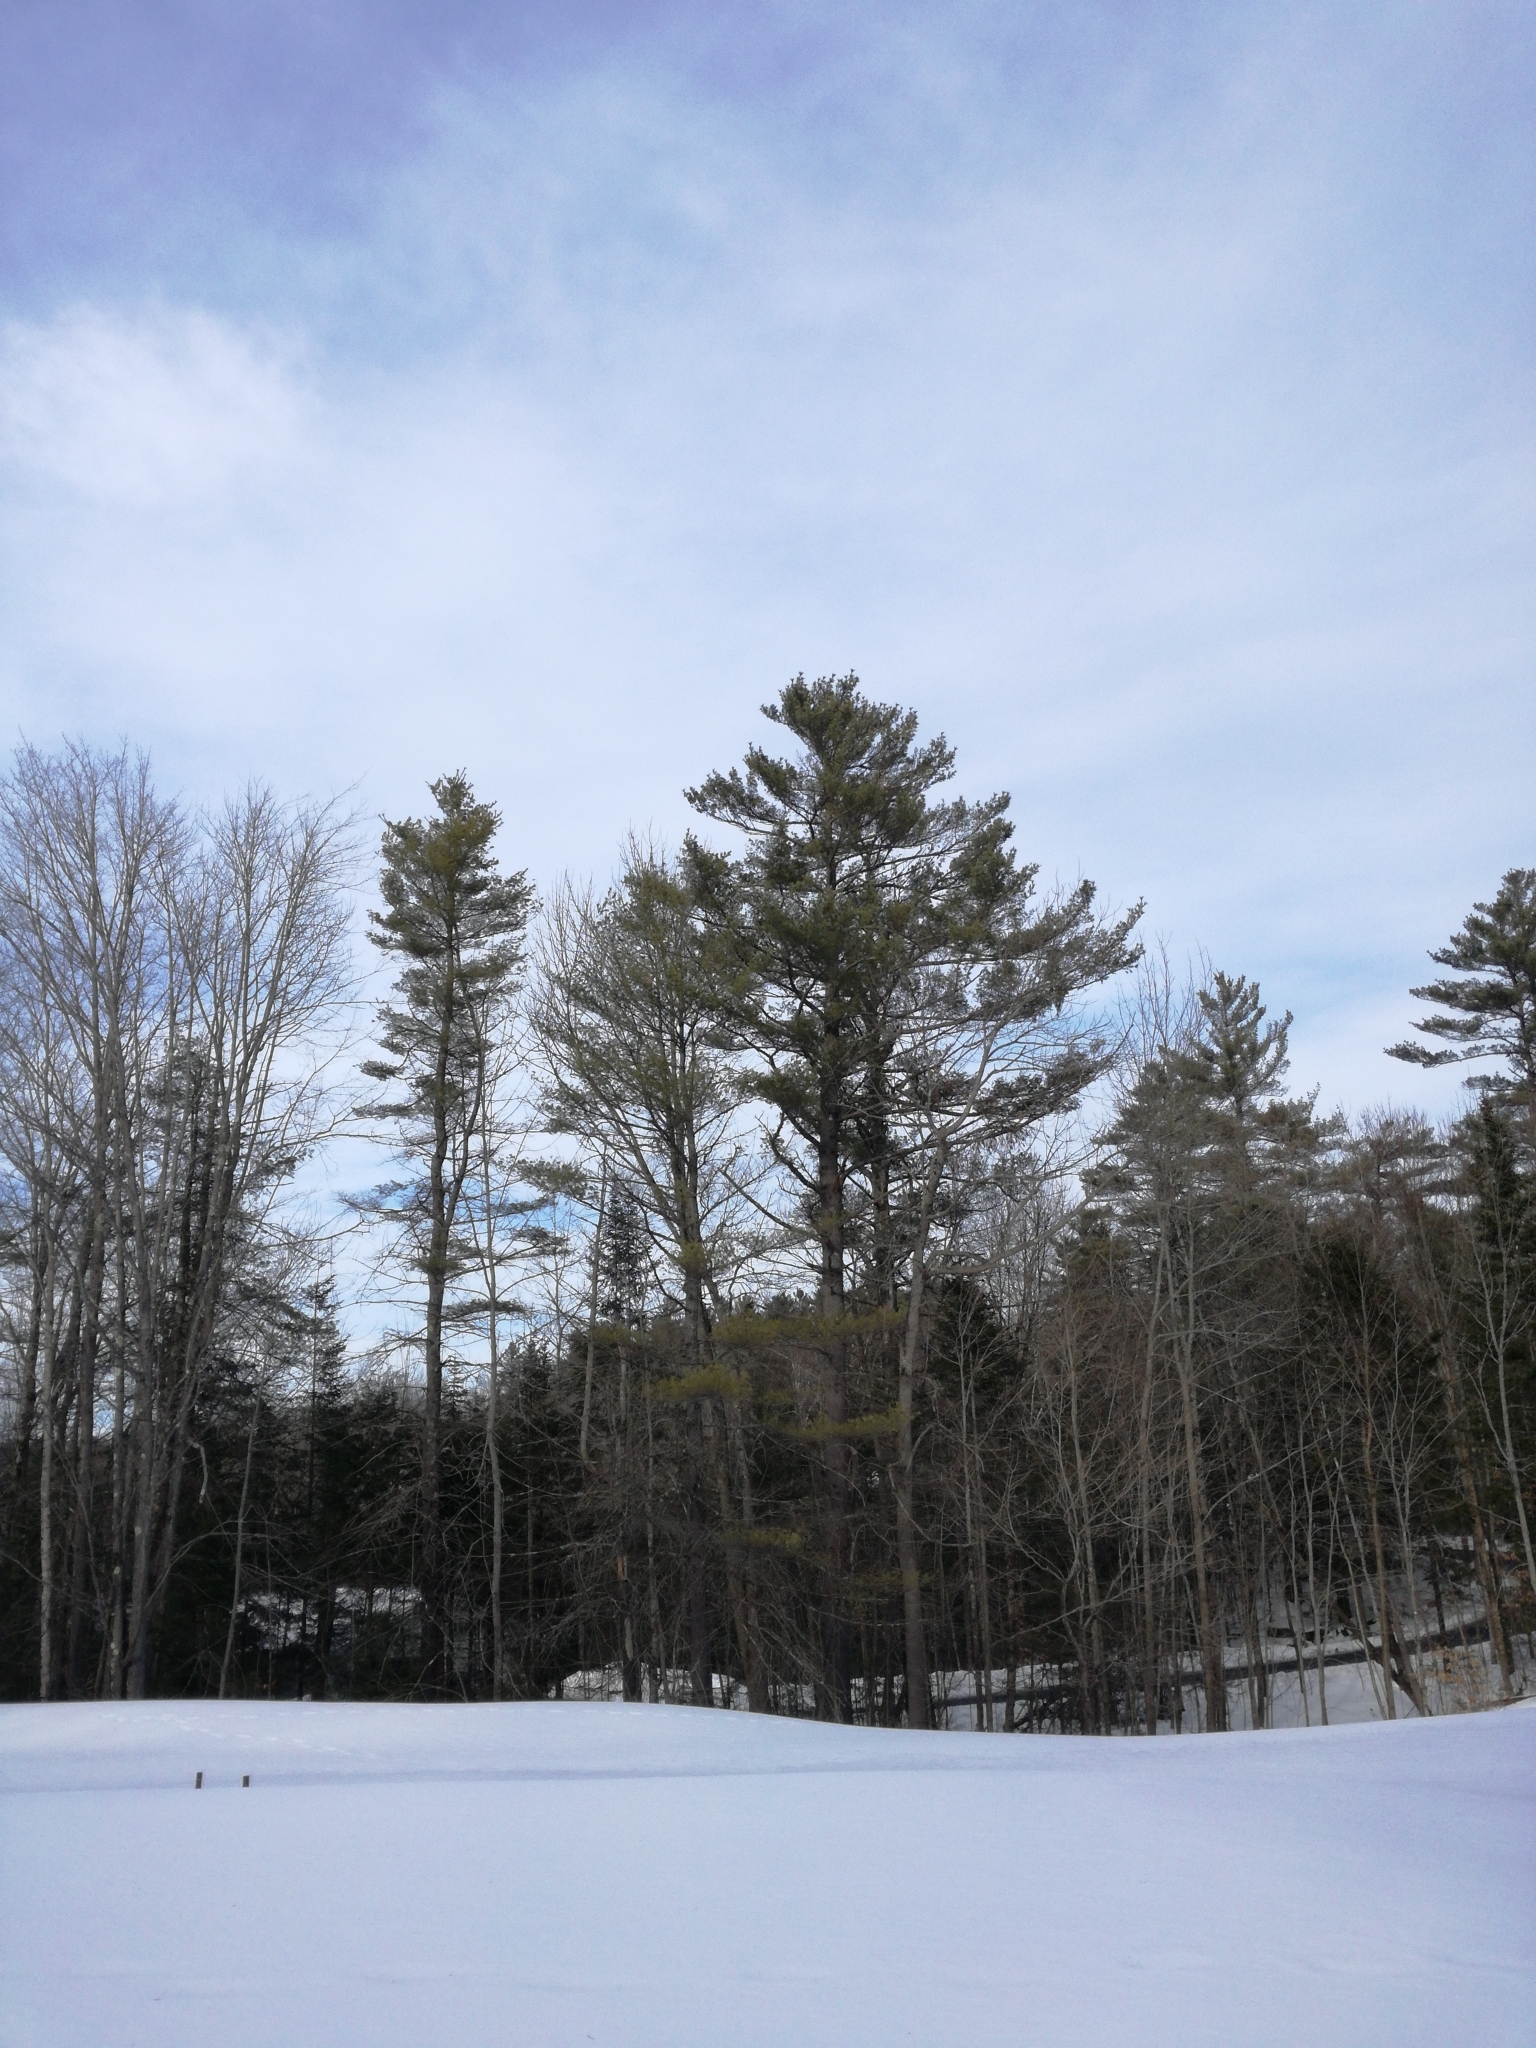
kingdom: Plantae
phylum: Tracheophyta
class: Pinopsida
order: Pinales
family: Pinaceae
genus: Pinus
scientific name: Pinus strobus
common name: Weymouth pine
